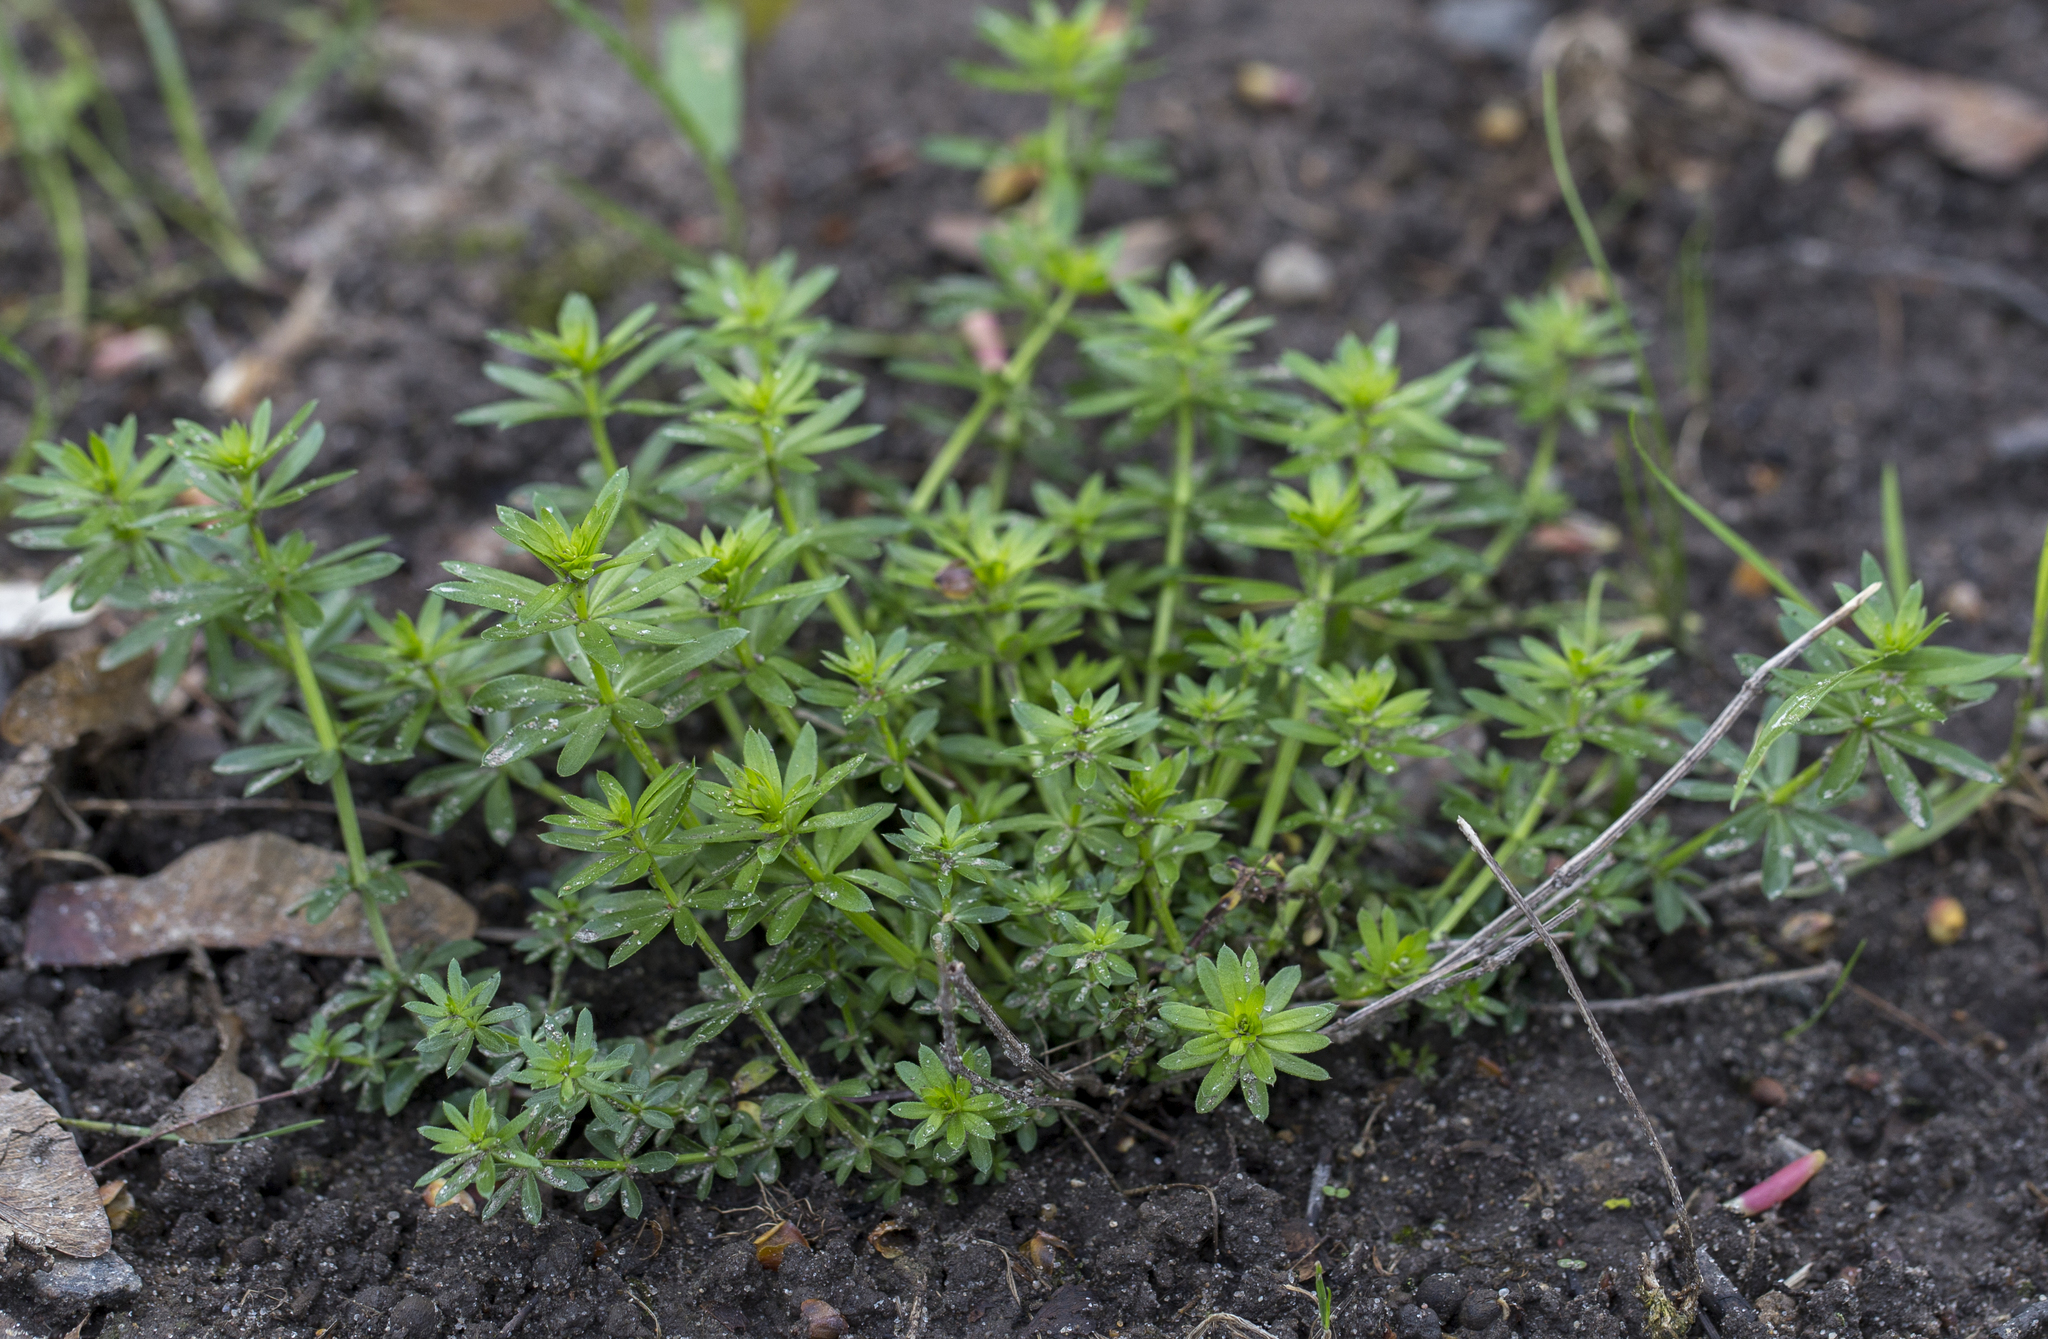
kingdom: Plantae
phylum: Tracheophyta
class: Magnoliopsida
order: Gentianales
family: Rubiaceae
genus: Galium
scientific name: Galium mollugo
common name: Hedge bedstraw
